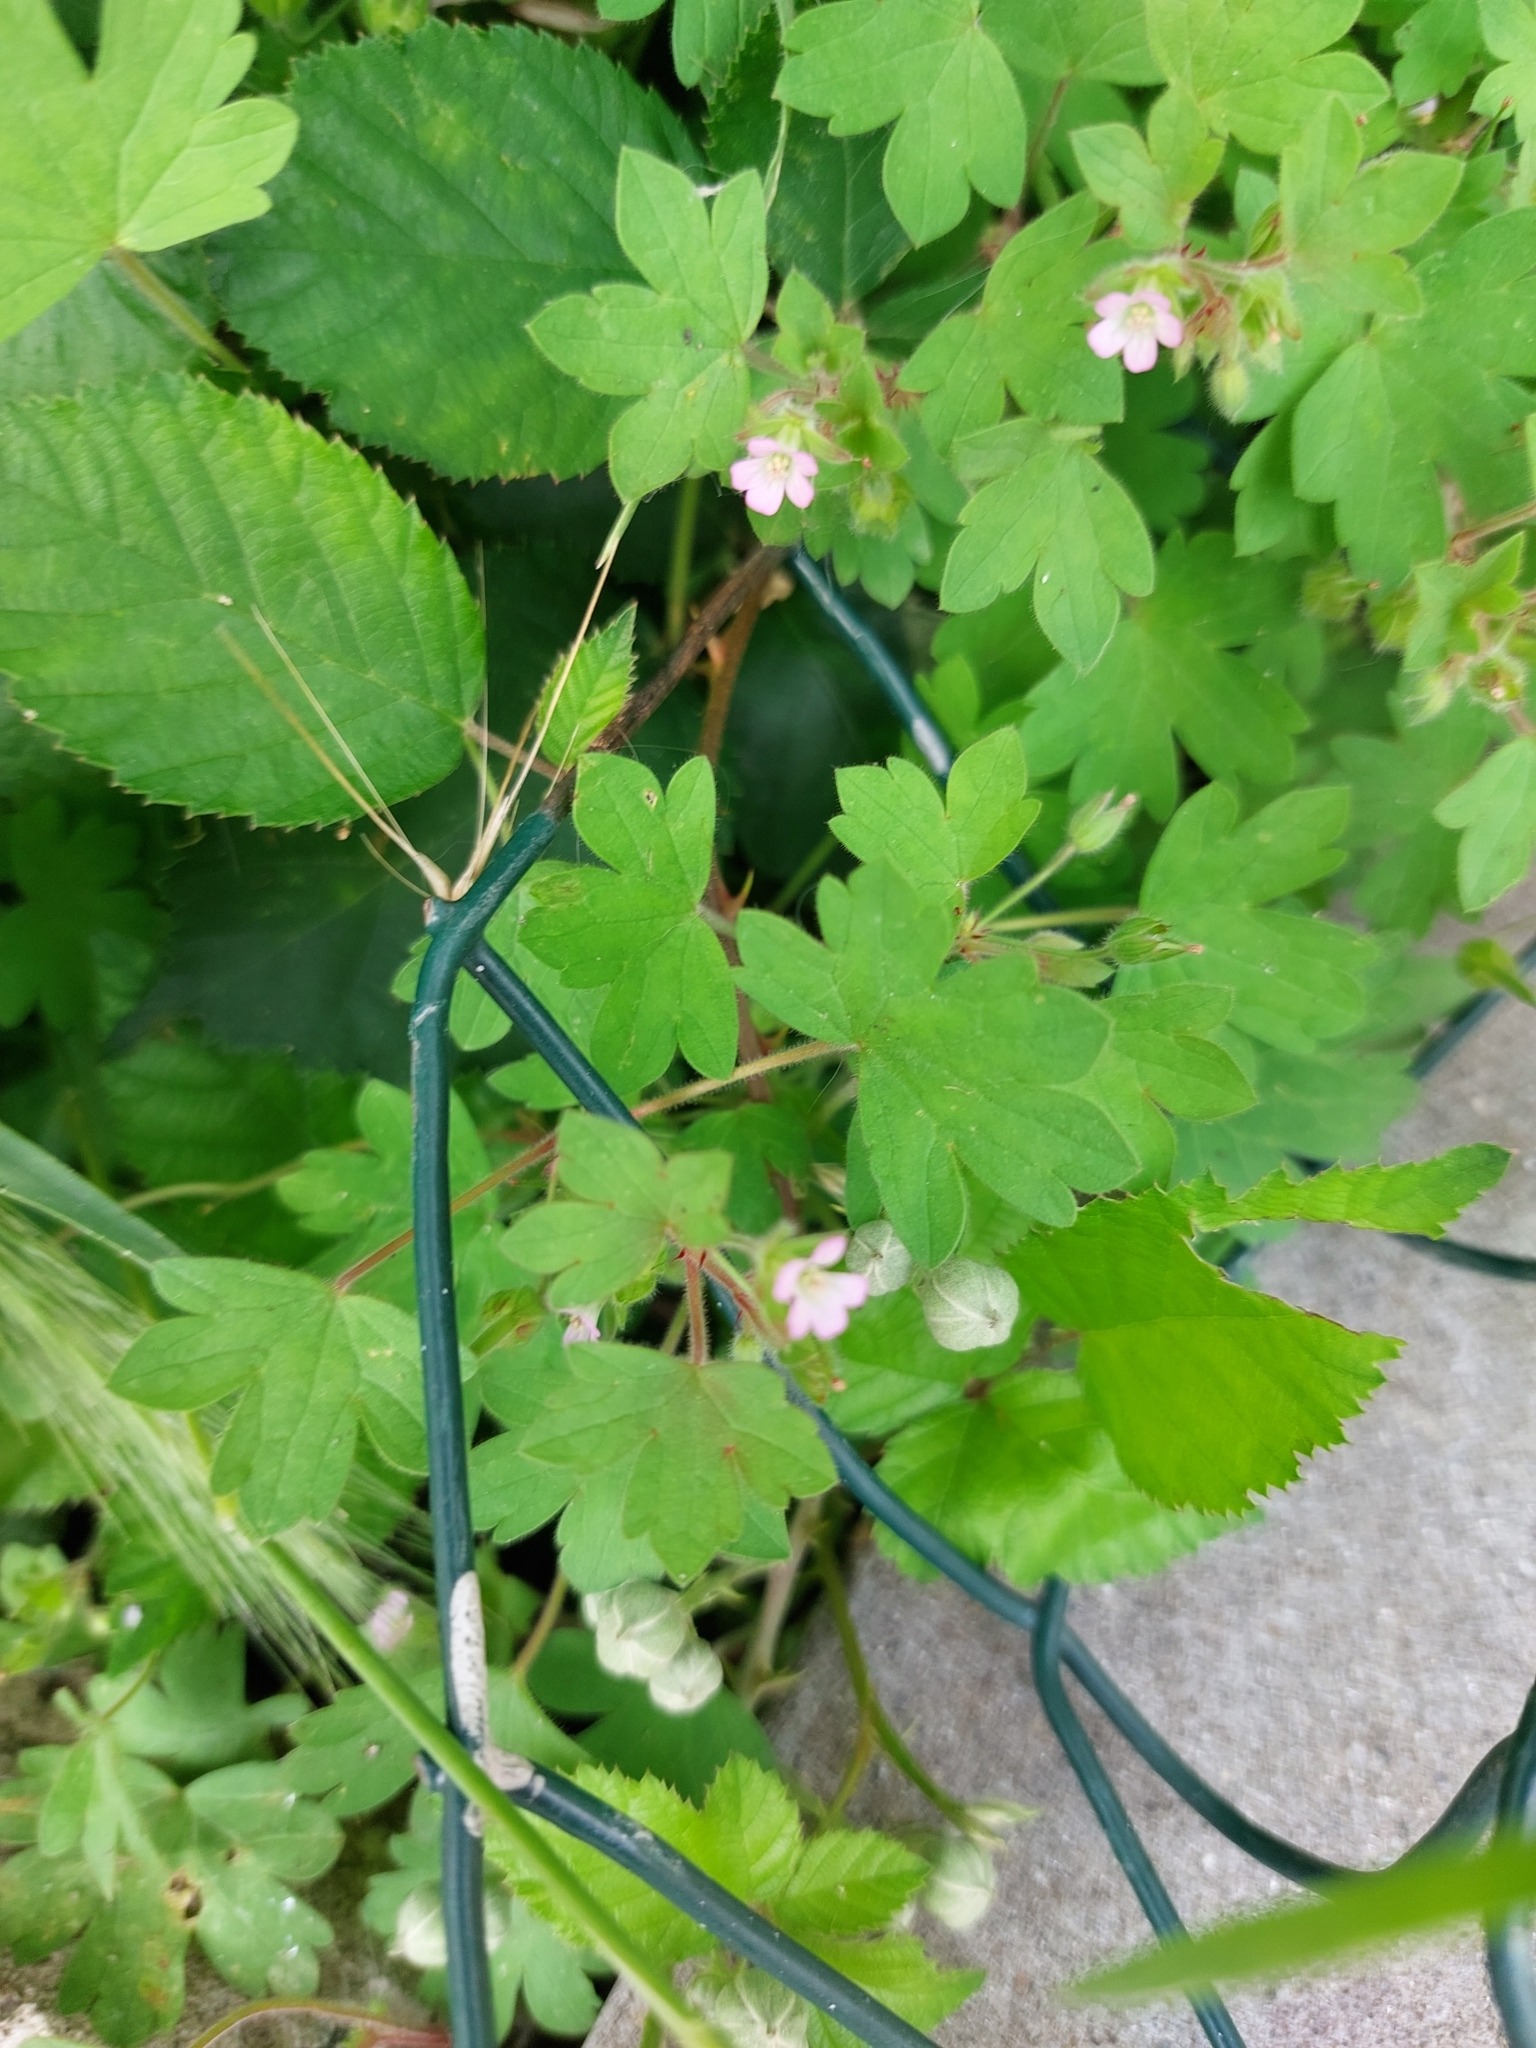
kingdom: Plantae
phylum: Tracheophyta
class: Magnoliopsida
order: Geraniales
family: Geraniaceae
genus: Geranium
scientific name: Geranium rotundifolium
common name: Round-leaved crane's-bill
